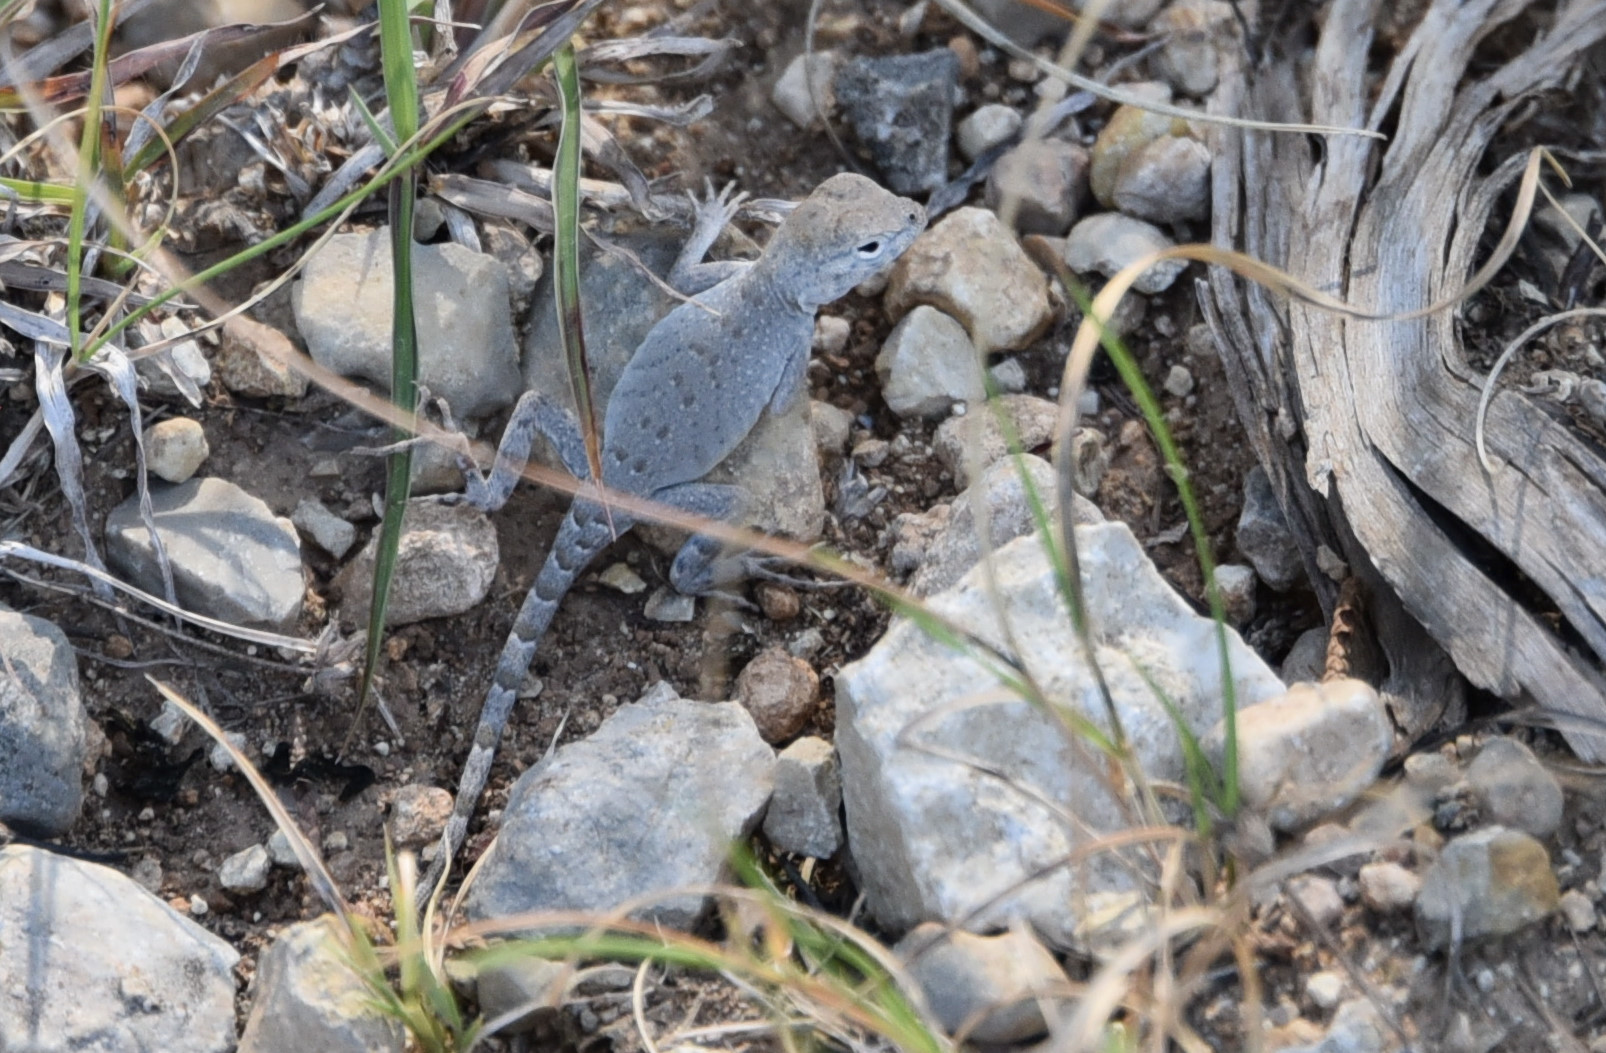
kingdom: Animalia
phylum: Chordata
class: Squamata
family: Phrynosomatidae
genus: Cophosaurus
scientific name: Cophosaurus texanus
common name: Greater earless lizard
